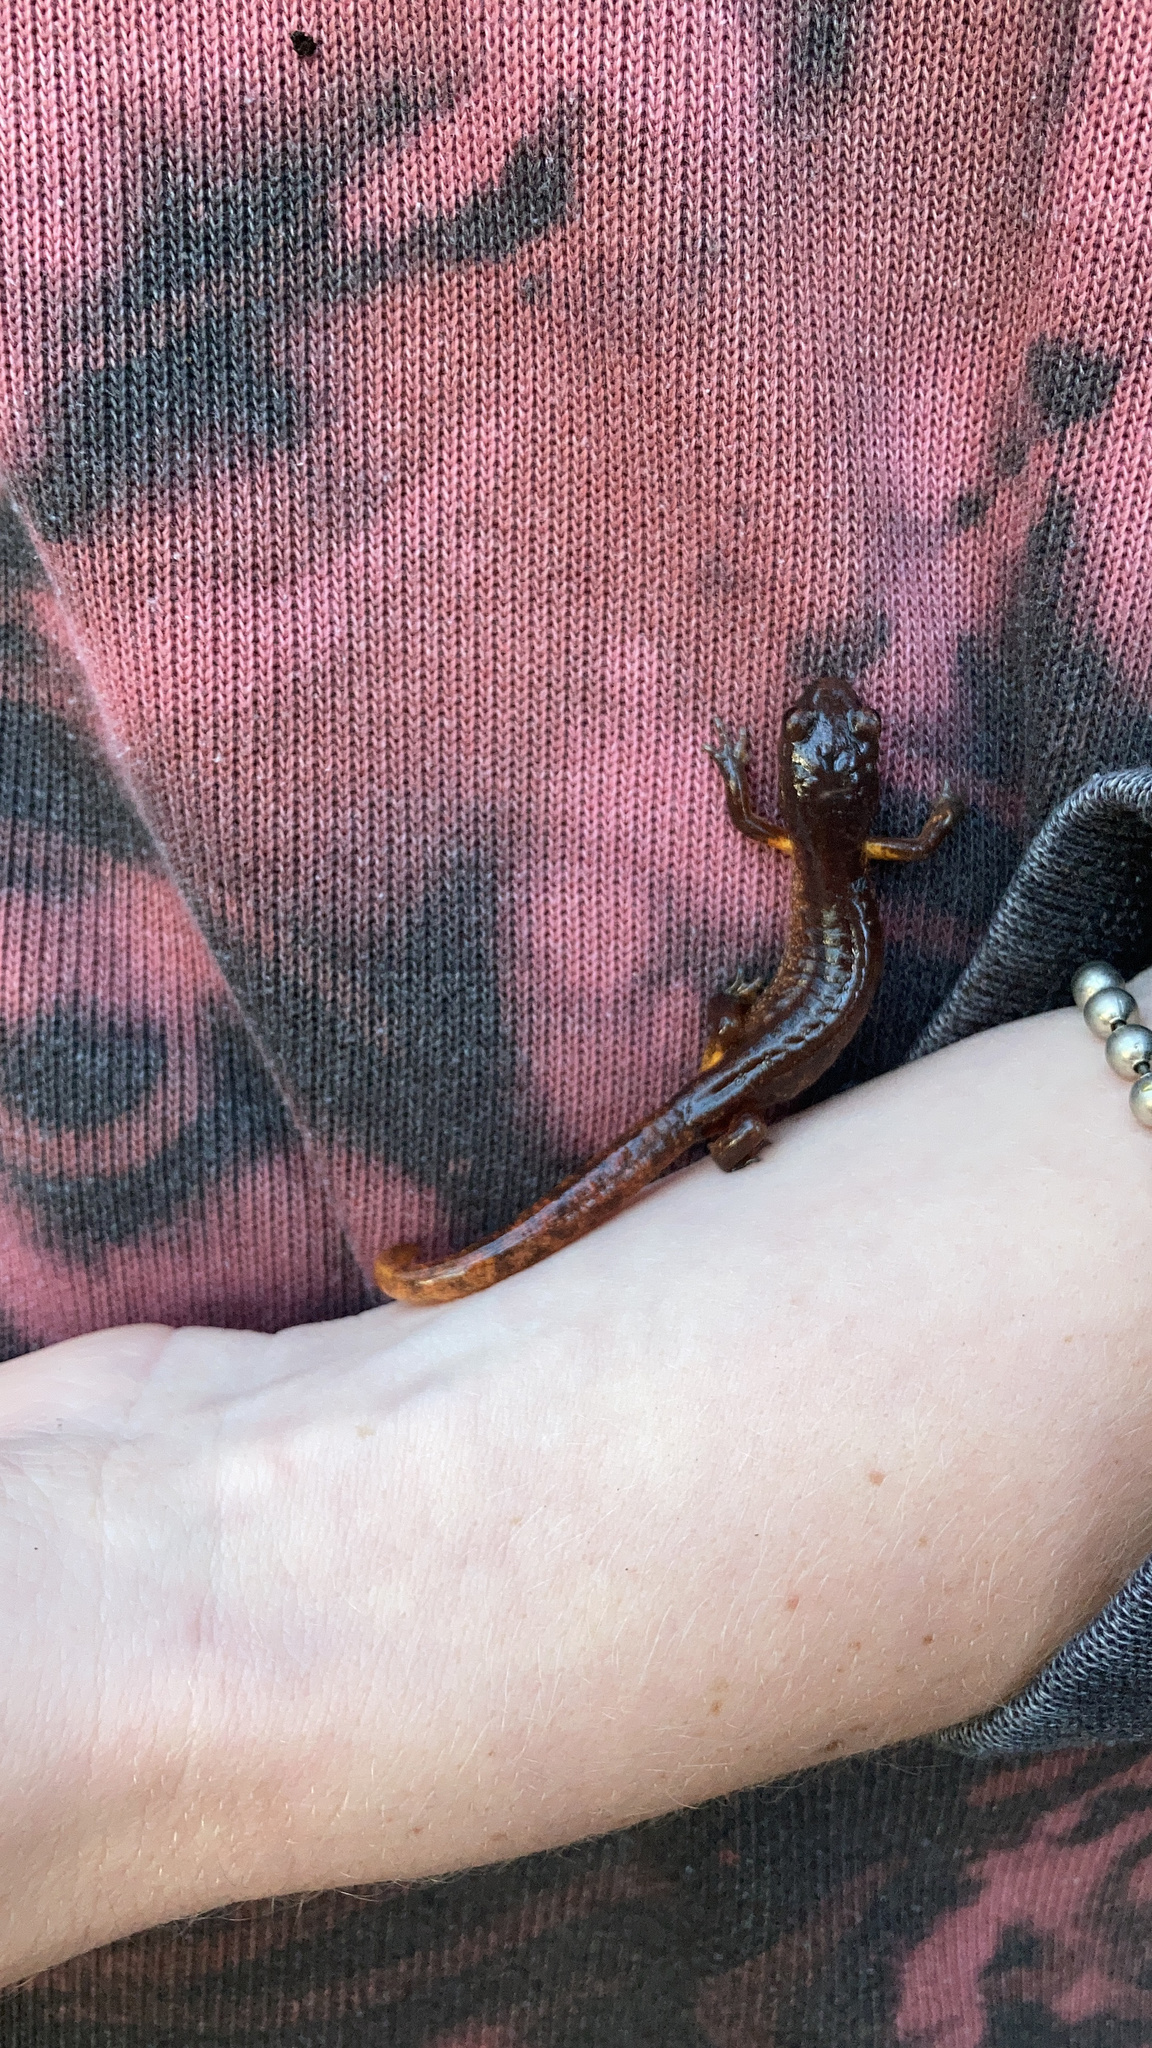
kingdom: Animalia
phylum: Chordata
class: Amphibia
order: Caudata
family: Plethodontidae
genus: Ensatina
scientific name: Ensatina eschscholtzii
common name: Ensatina
